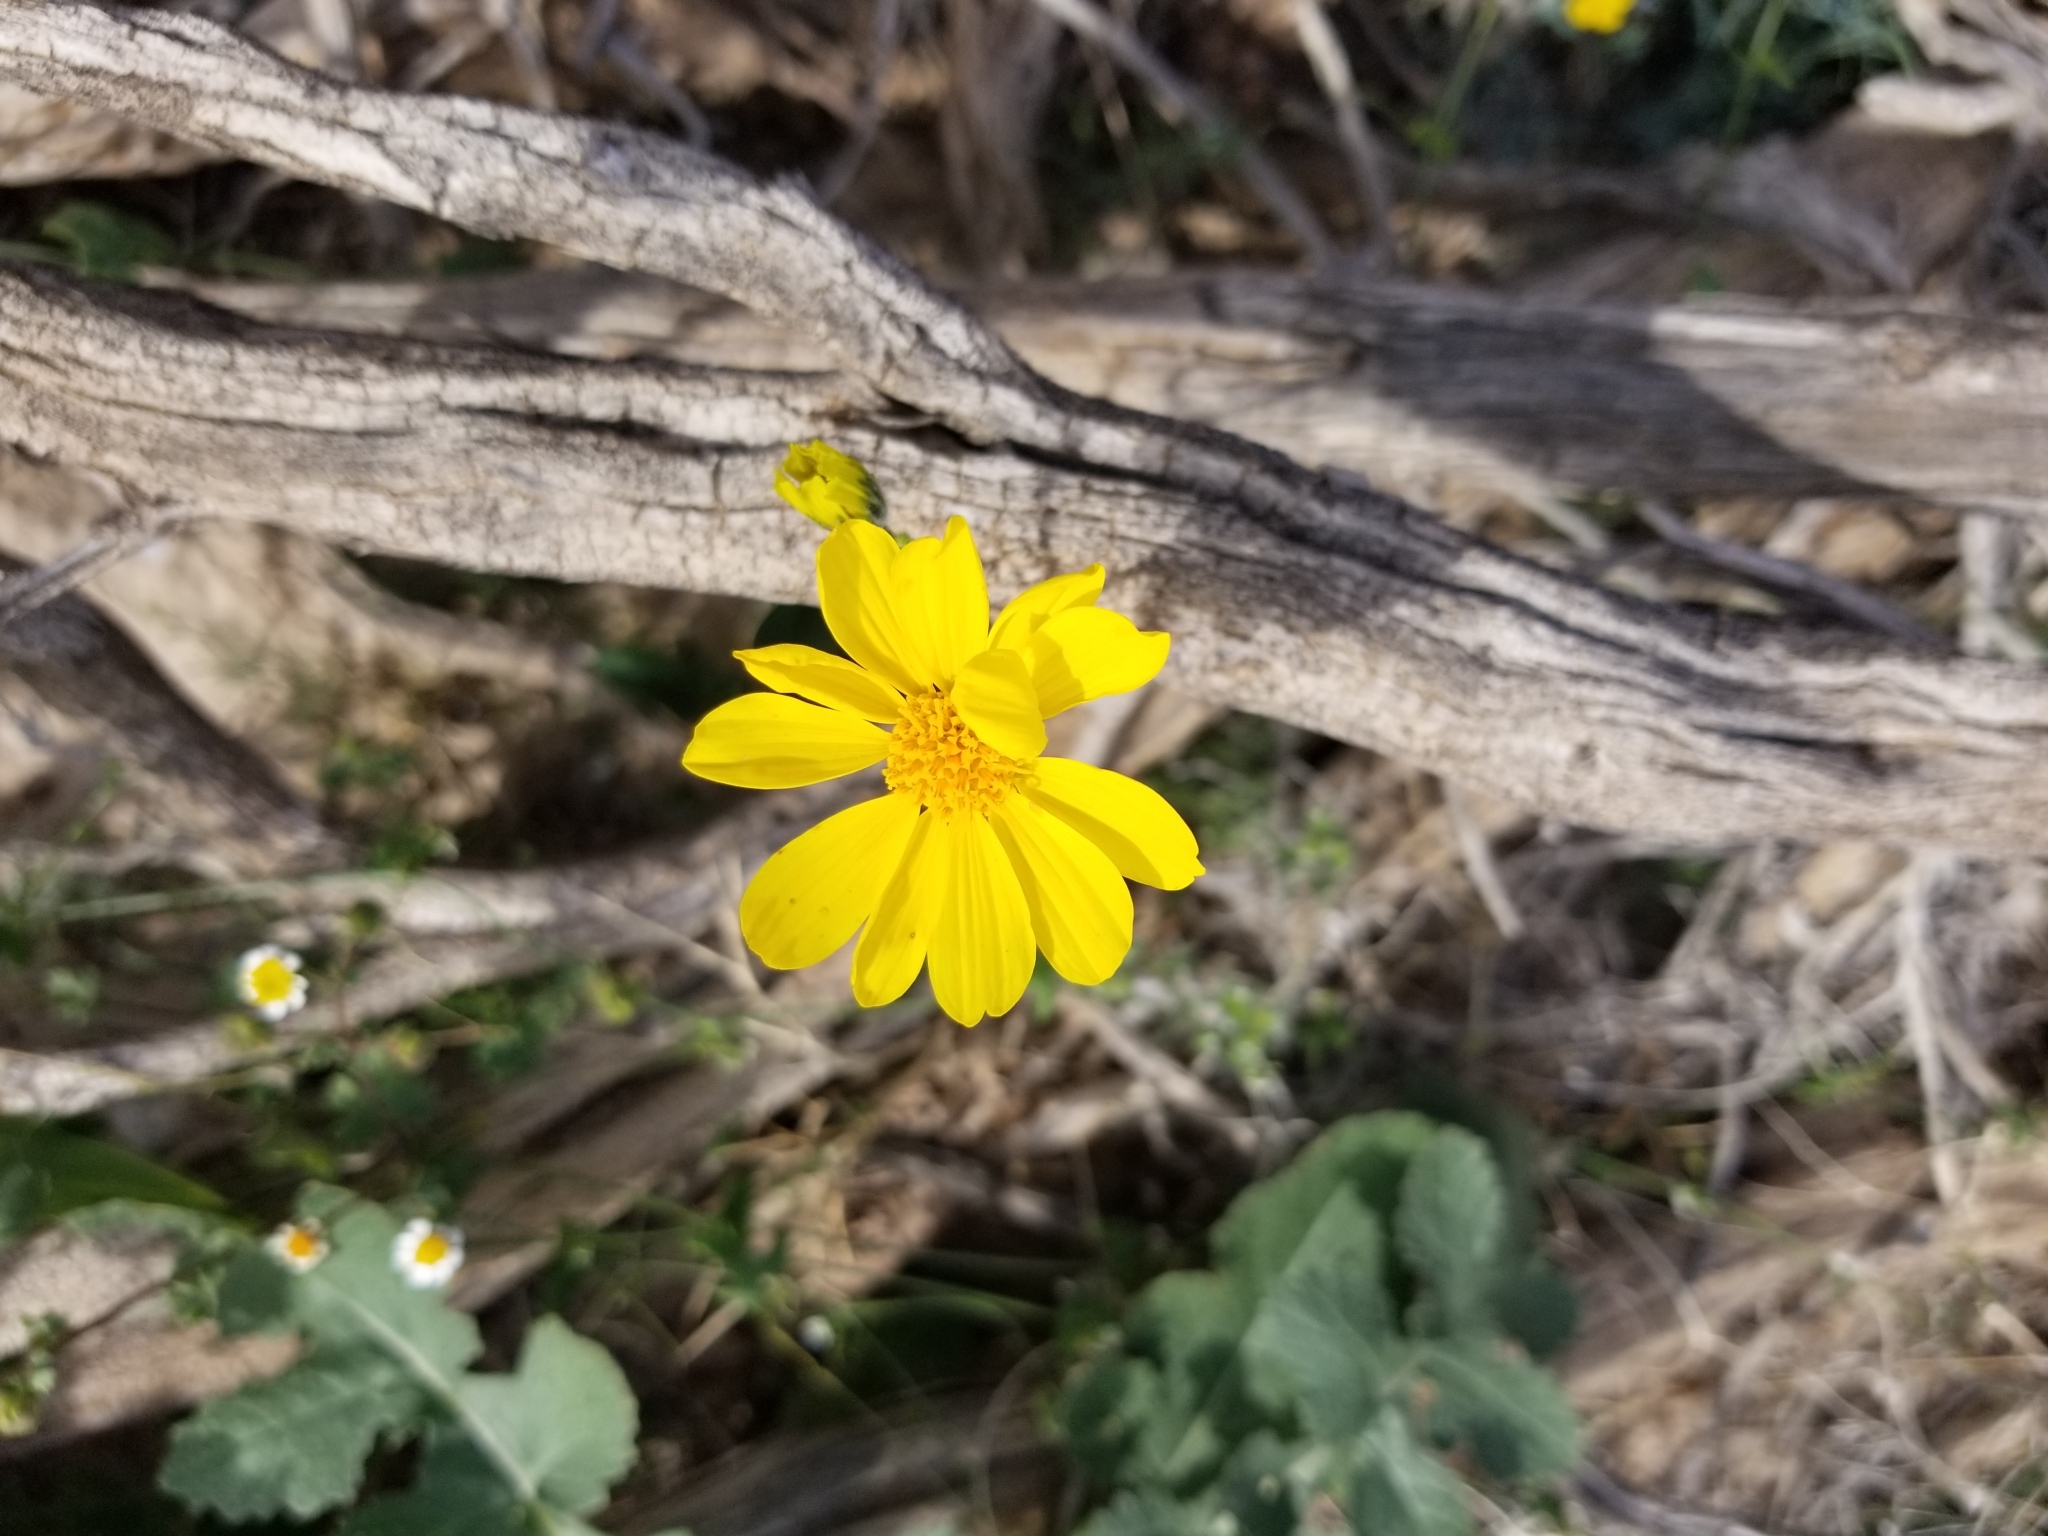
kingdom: Plantae
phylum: Tracheophyta
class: Magnoliopsida
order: Asterales
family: Asteraceae
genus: Geraea
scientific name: Geraea canescens
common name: Desert-gold
